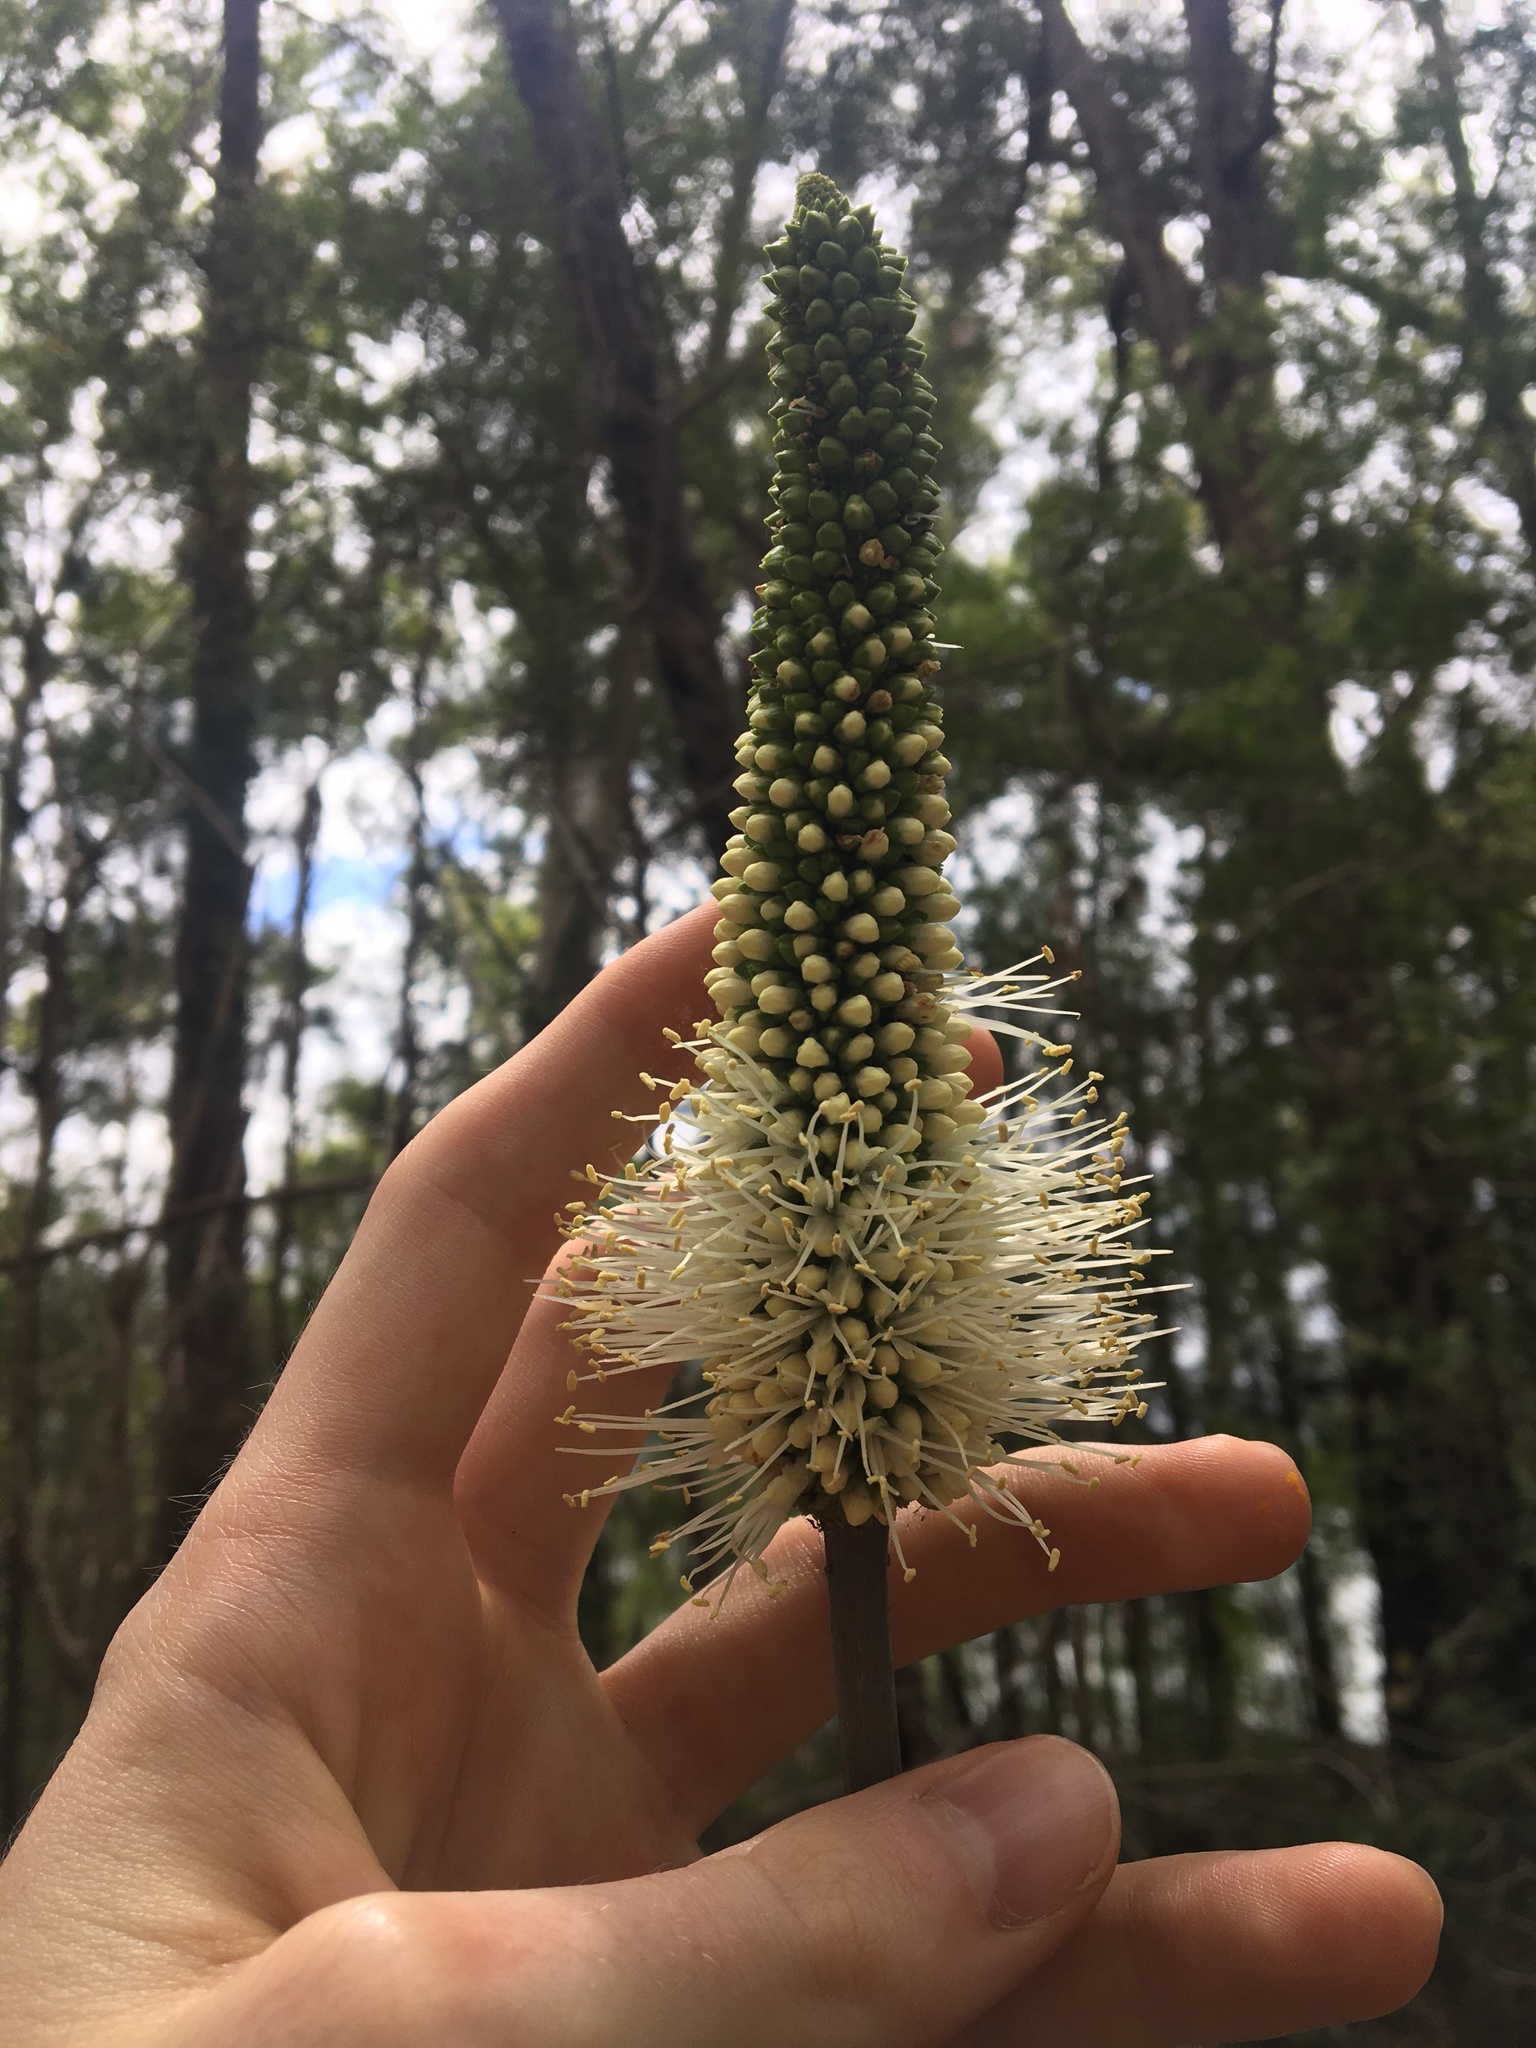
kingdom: Plantae
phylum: Tracheophyta
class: Liliopsida
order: Asparagales
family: Asphodelaceae
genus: Xanthorrhoea
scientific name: Xanthorrhoea macronema
